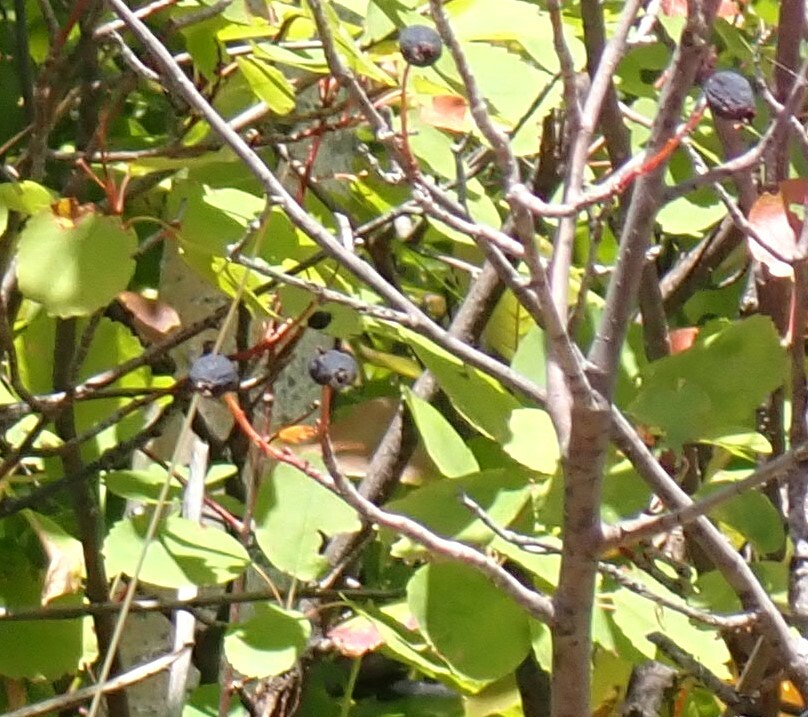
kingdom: Plantae
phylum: Tracheophyta
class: Magnoliopsida
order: Rosales
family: Rosaceae
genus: Amelanchier
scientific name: Amelanchier alnifolia
